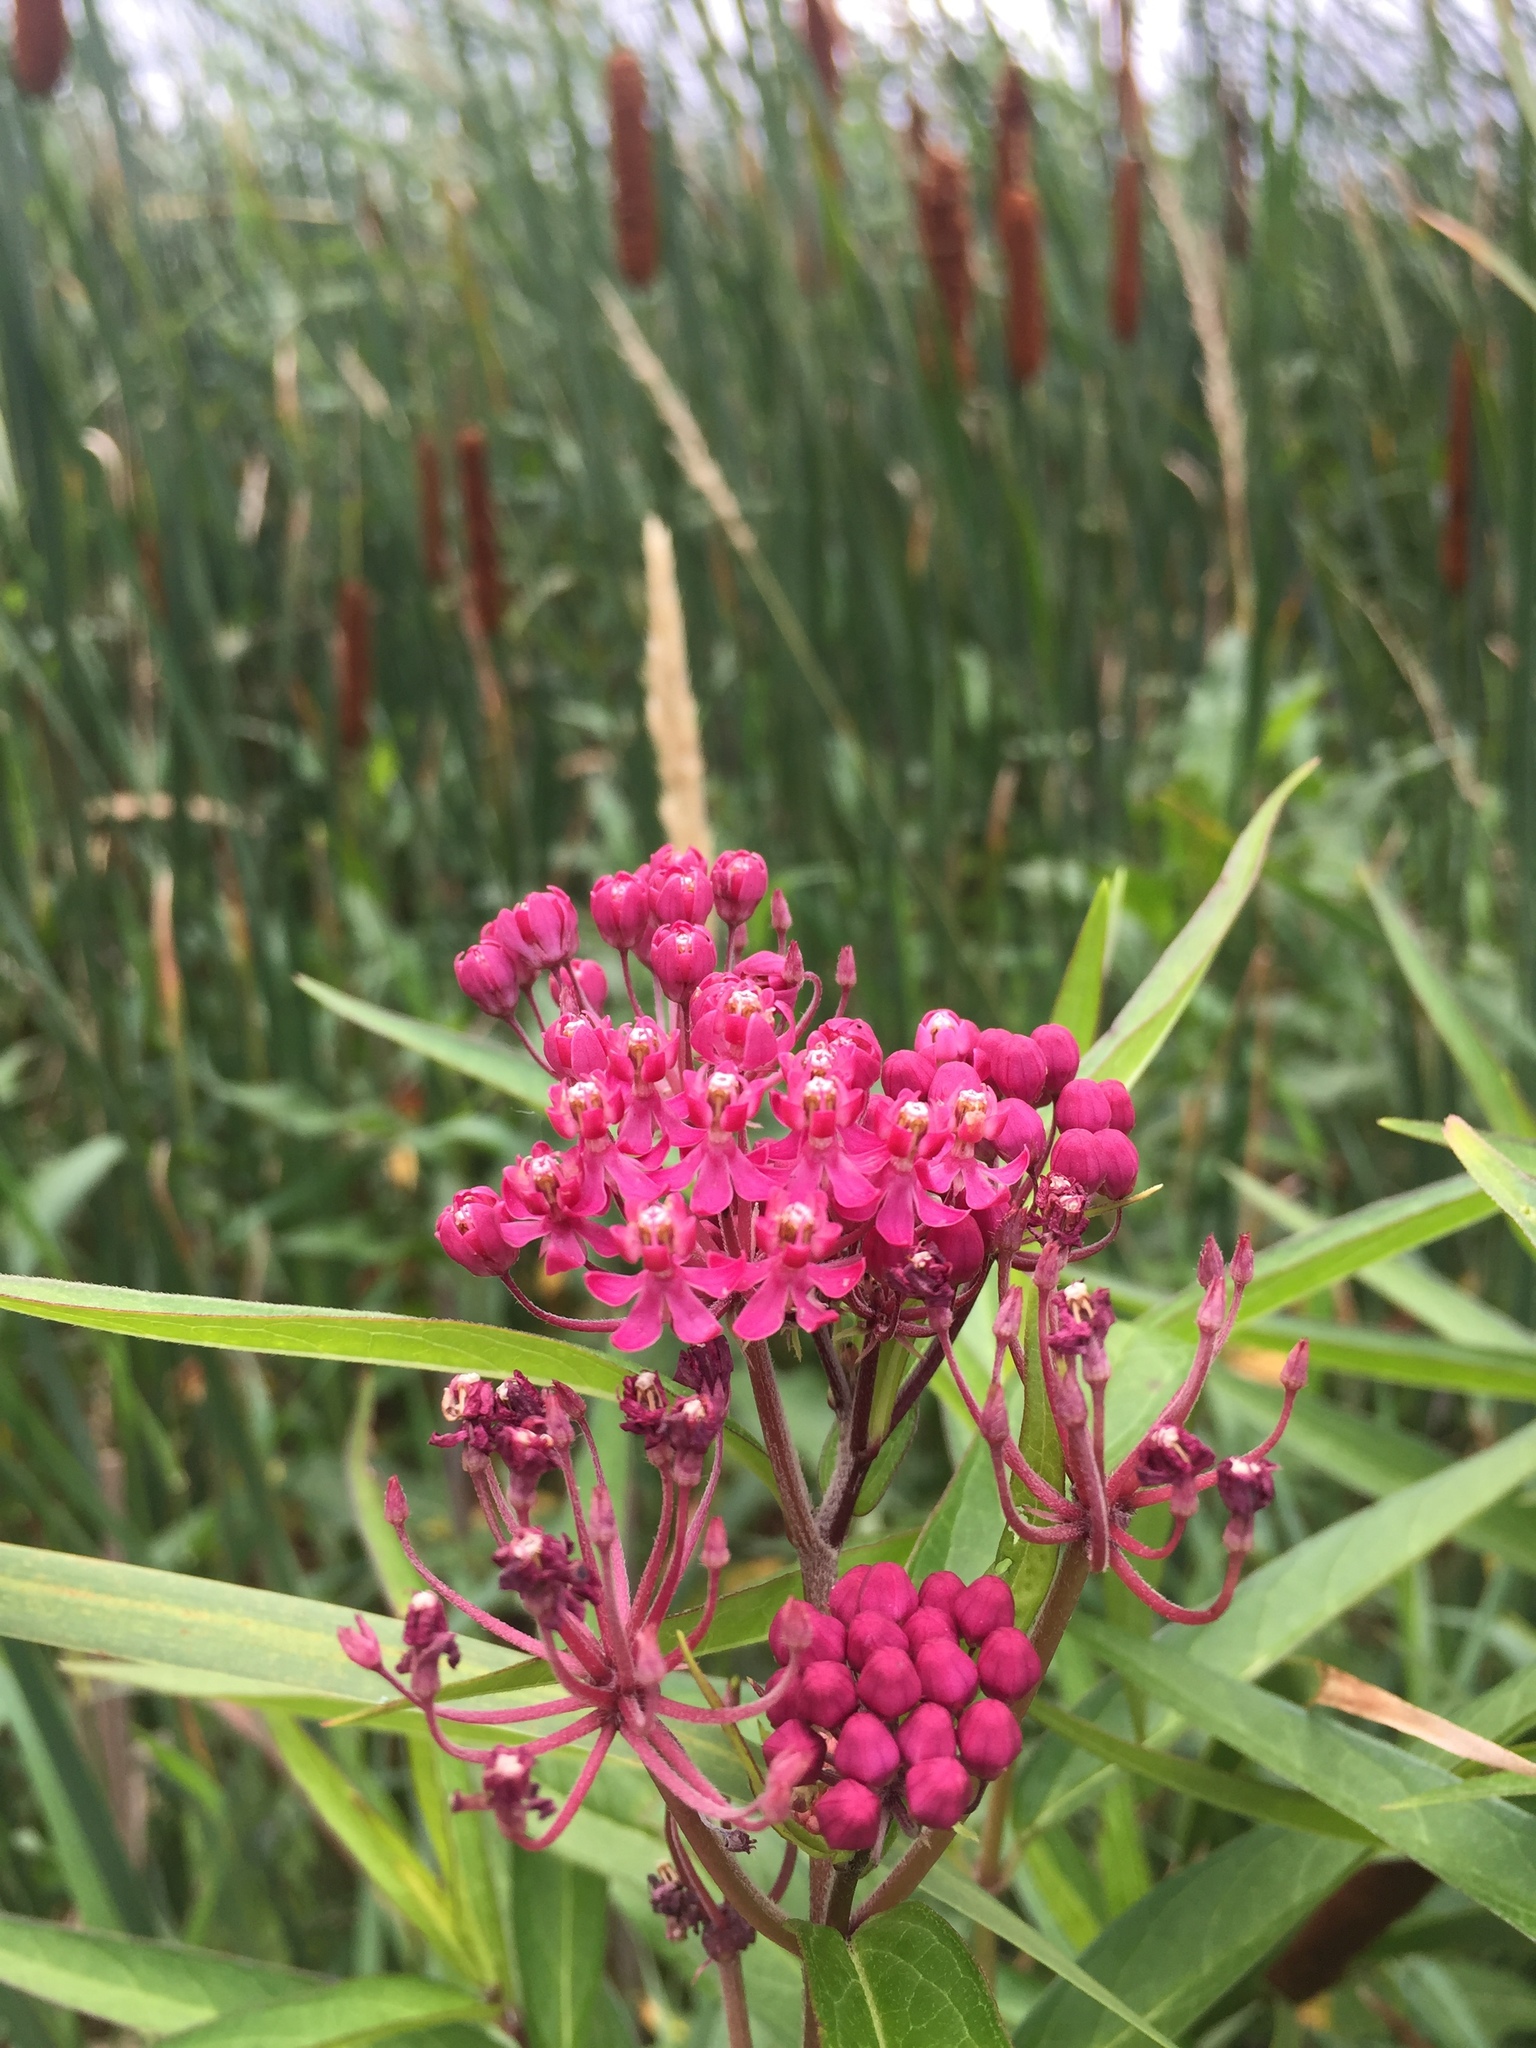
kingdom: Plantae
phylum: Tracheophyta
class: Magnoliopsida
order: Gentianales
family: Apocynaceae
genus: Asclepias
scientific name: Asclepias incarnata
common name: Swamp milkweed
